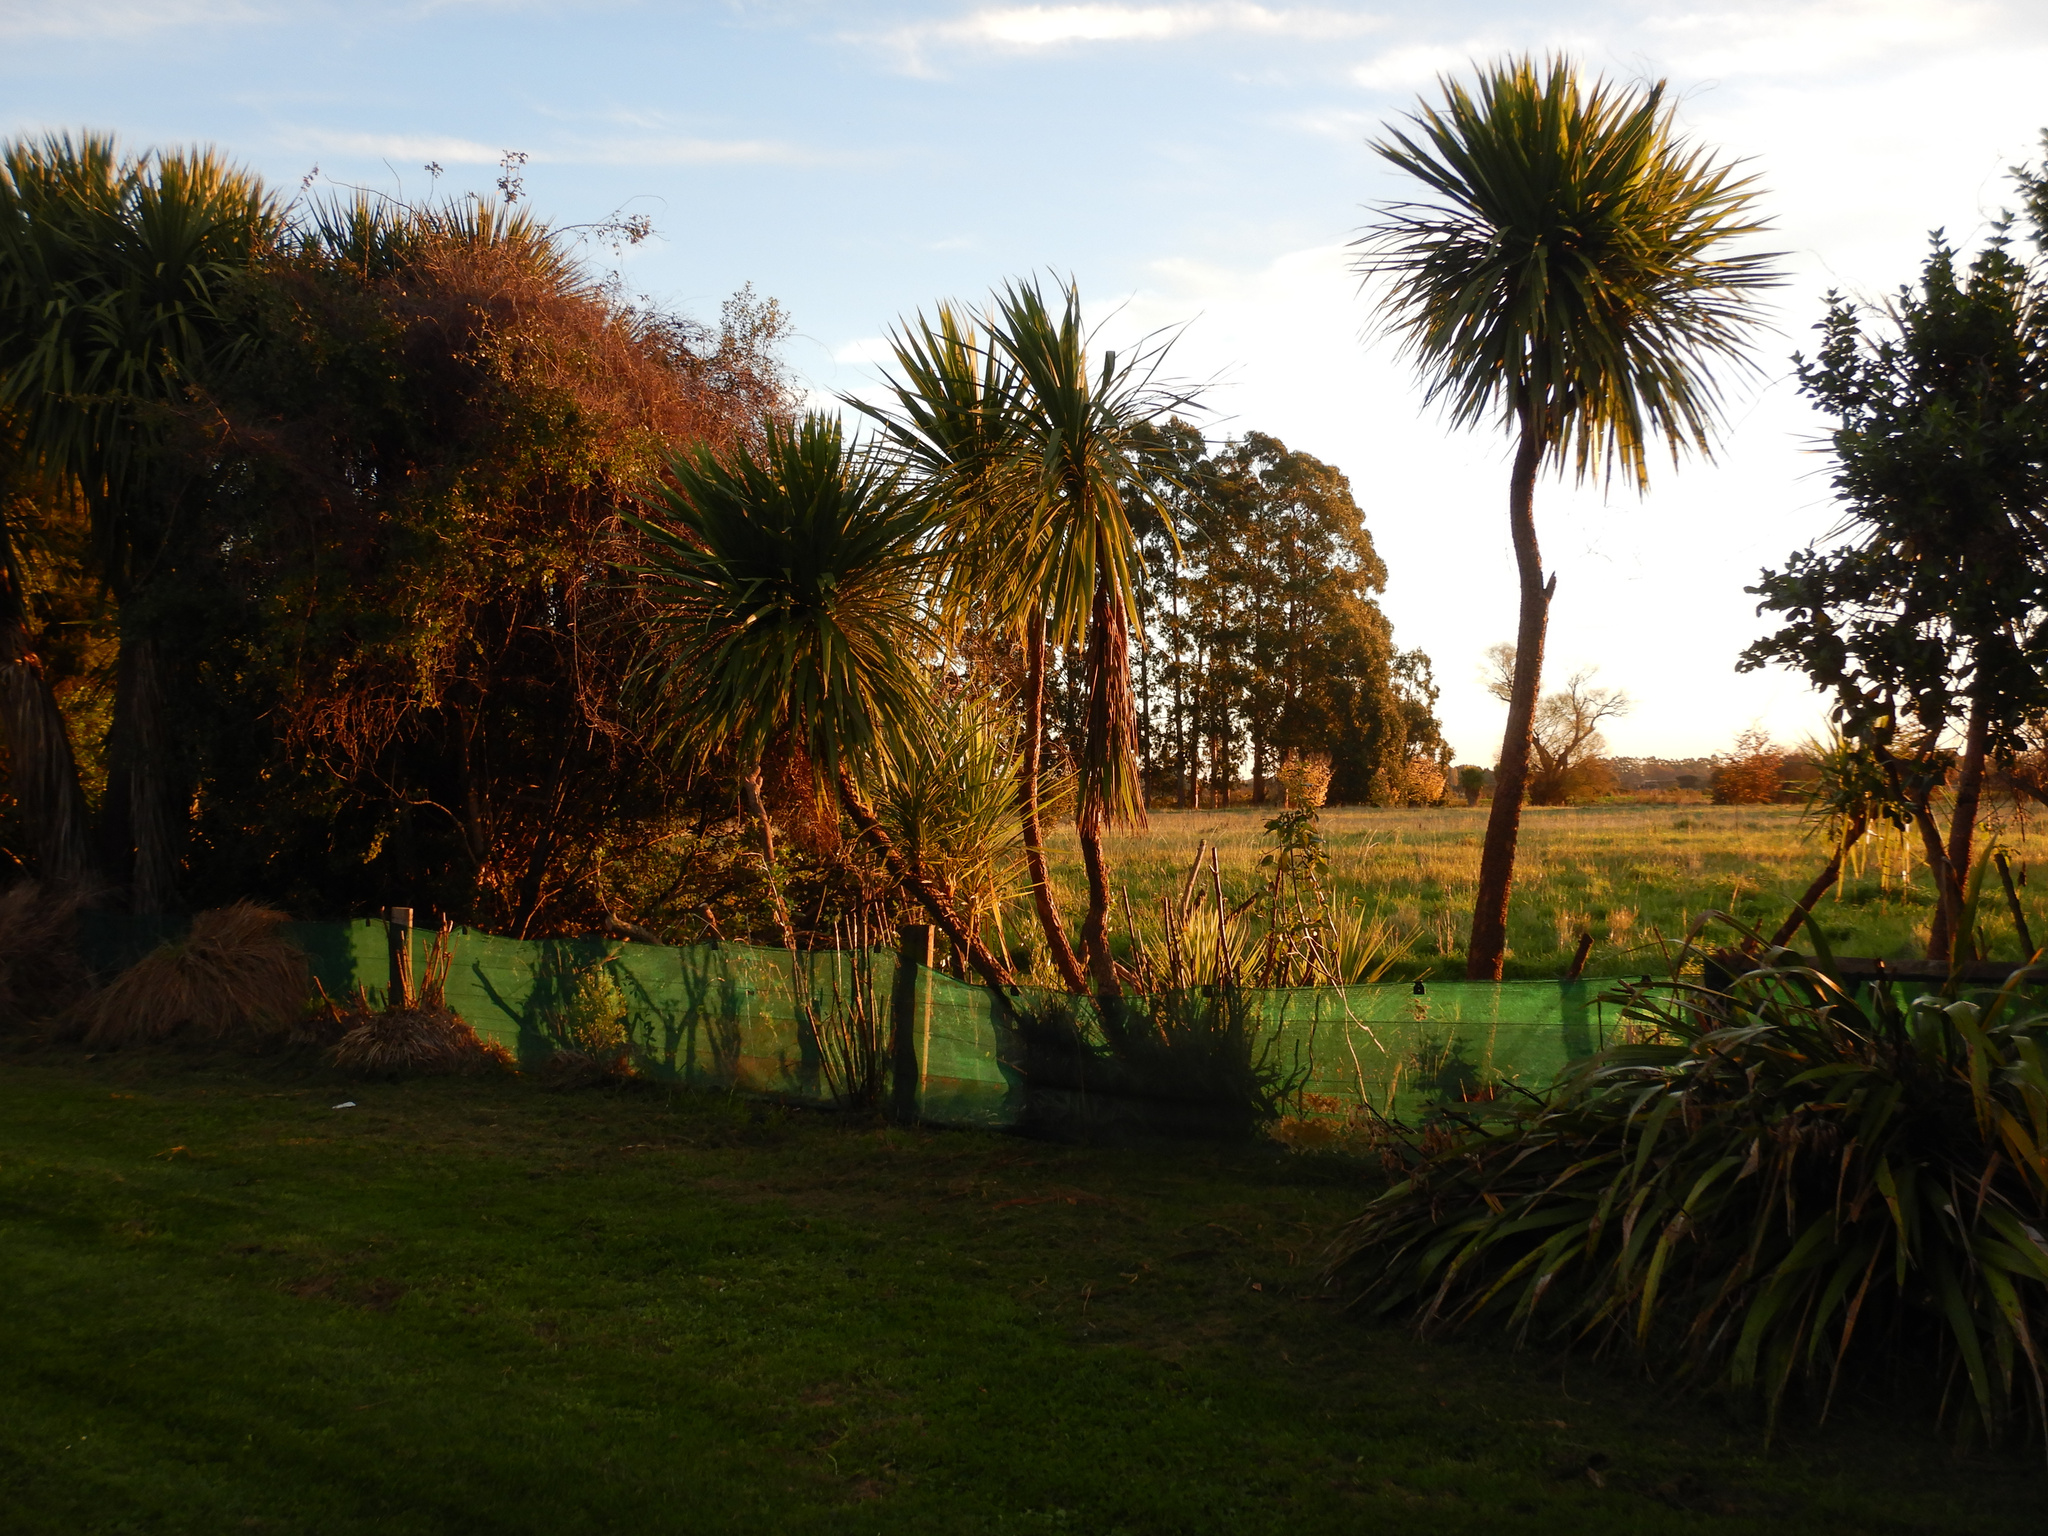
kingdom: Plantae
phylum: Tracheophyta
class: Liliopsida
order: Asparagales
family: Asparagaceae
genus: Cordyline
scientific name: Cordyline australis
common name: Cabbage-palm
